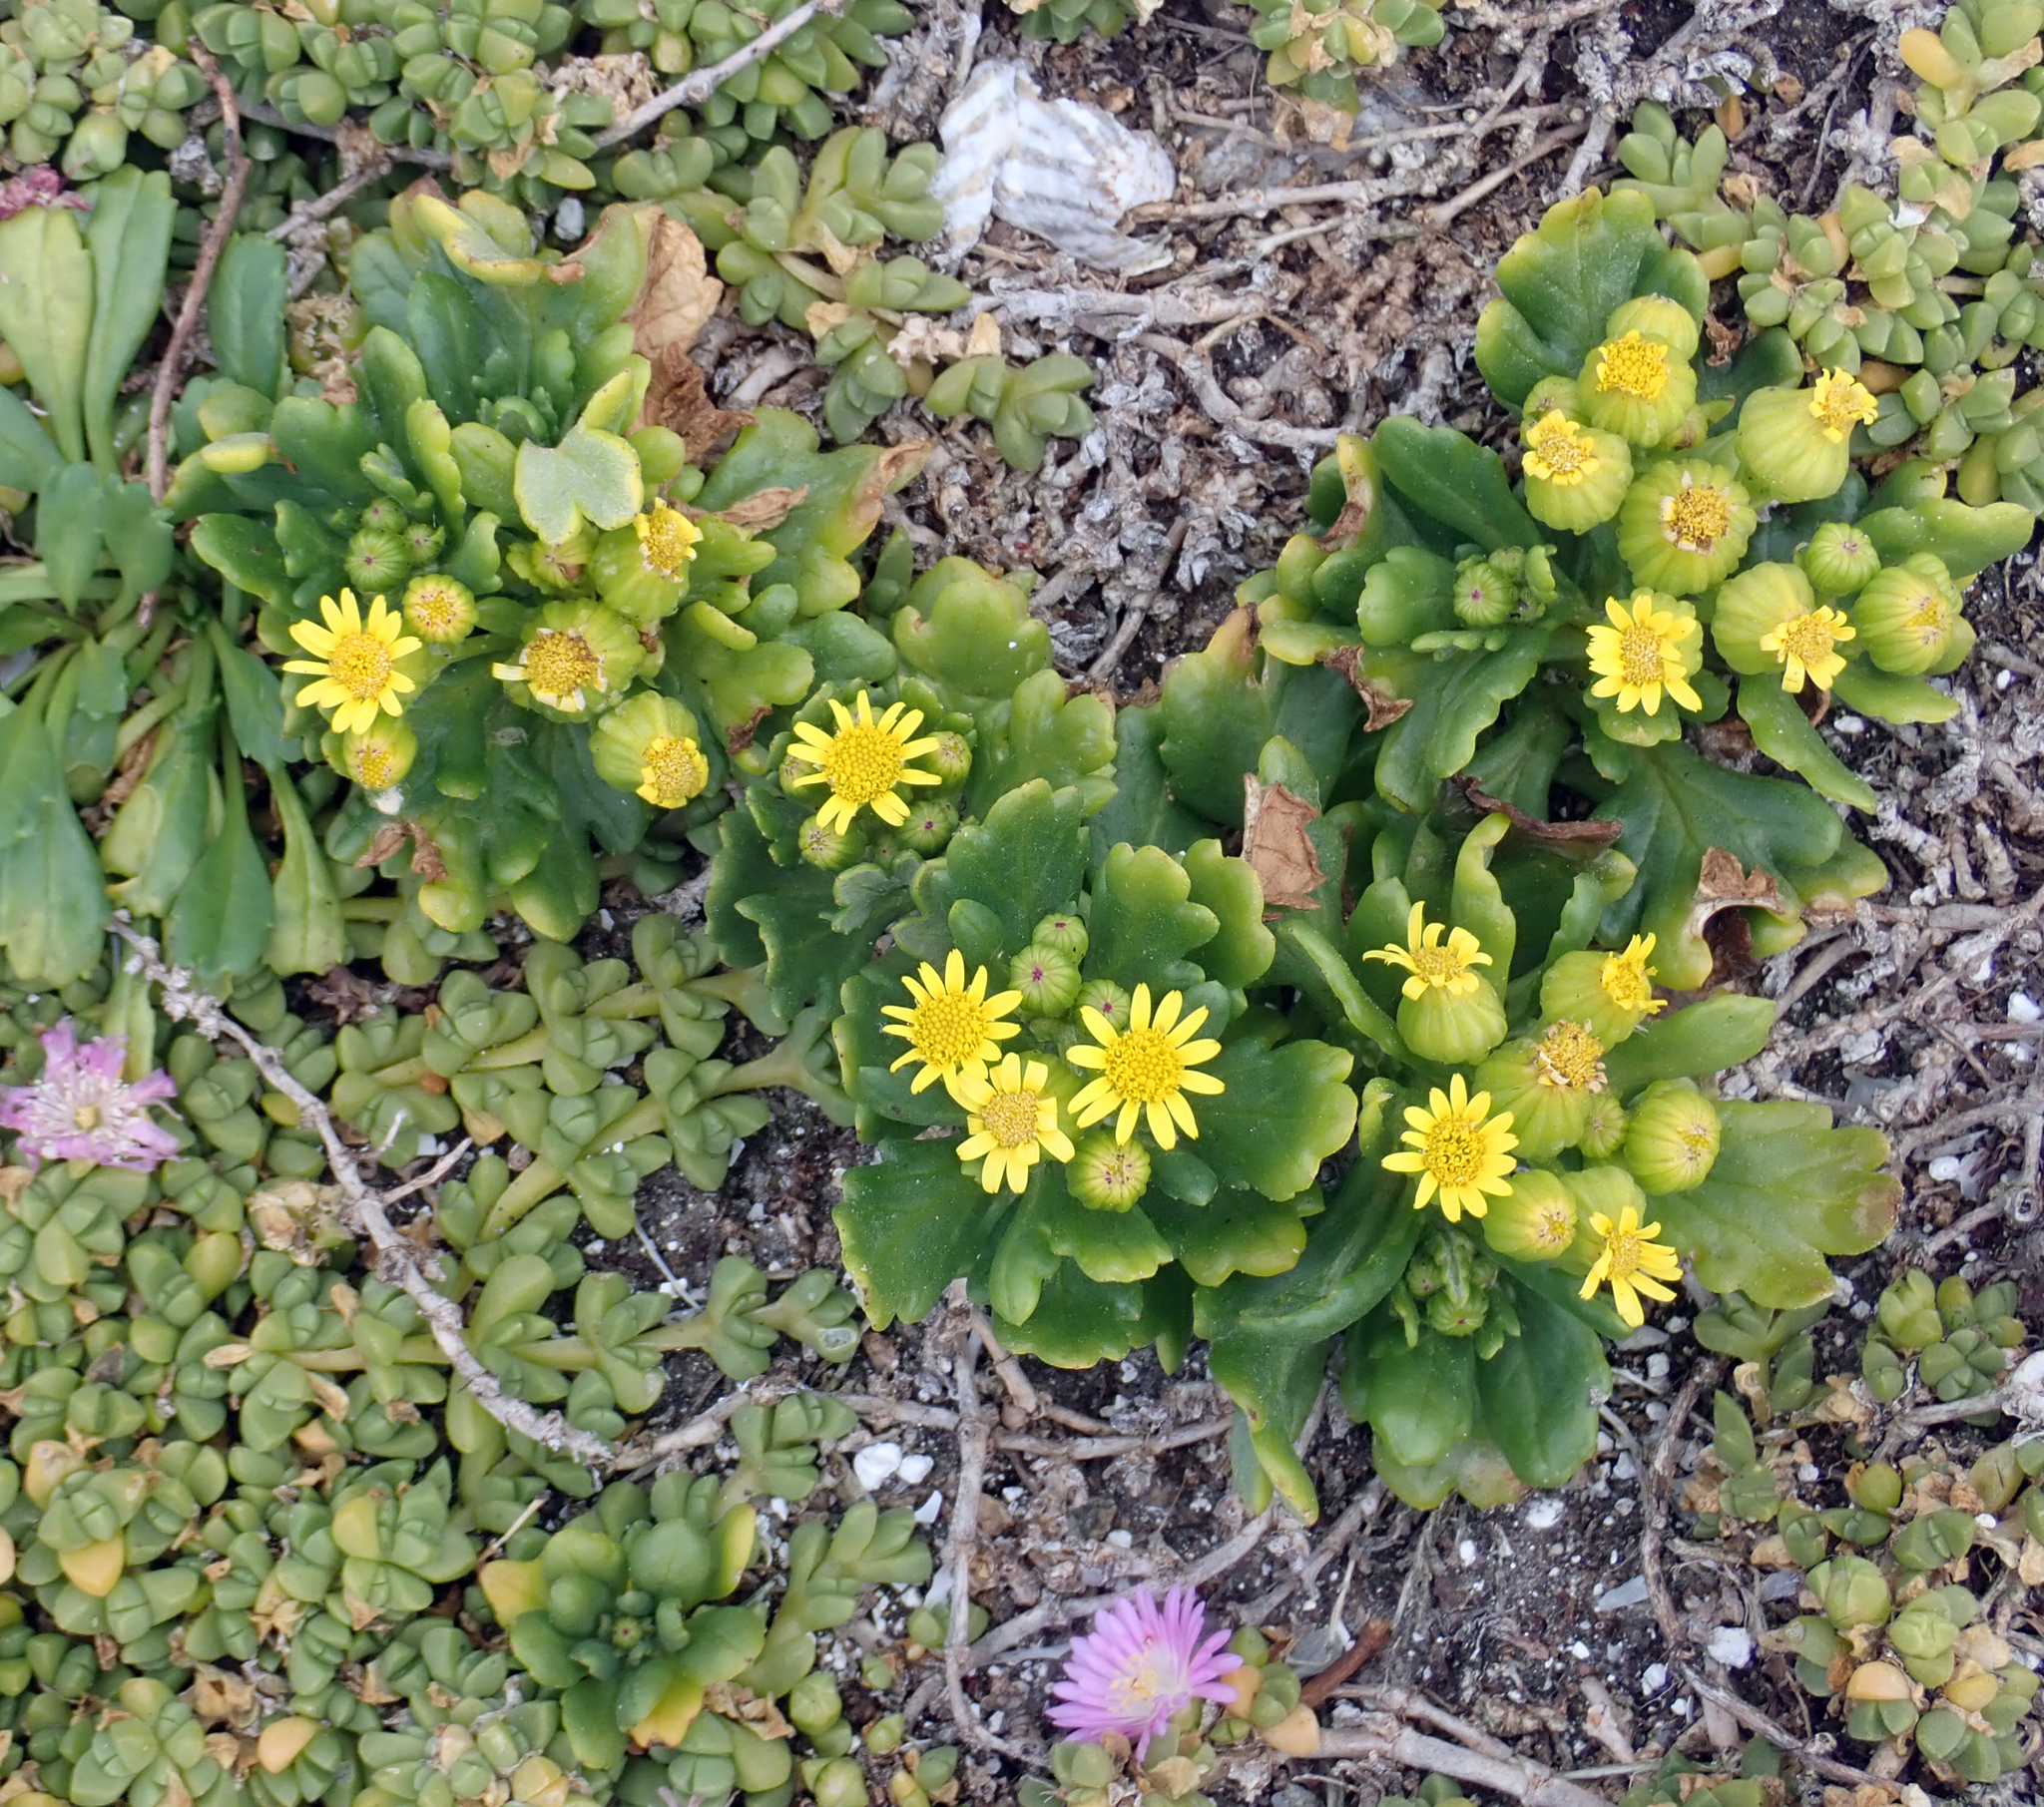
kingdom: Plantae
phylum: Tracheophyta
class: Magnoliopsida
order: Asterales
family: Asteraceae
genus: Senecio
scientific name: Senecio sterquilinus
